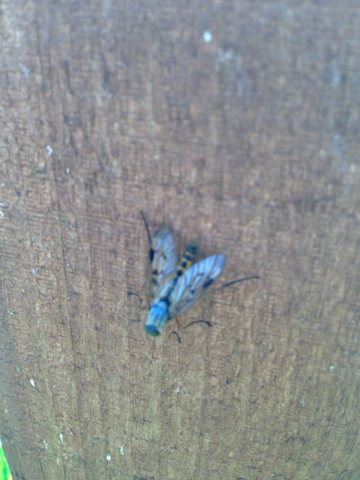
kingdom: Animalia
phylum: Arthropoda
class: Insecta
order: Diptera
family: Rhagionidae
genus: Rhagio
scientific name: Rhagio scolopacea
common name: Downlooker snipefly
